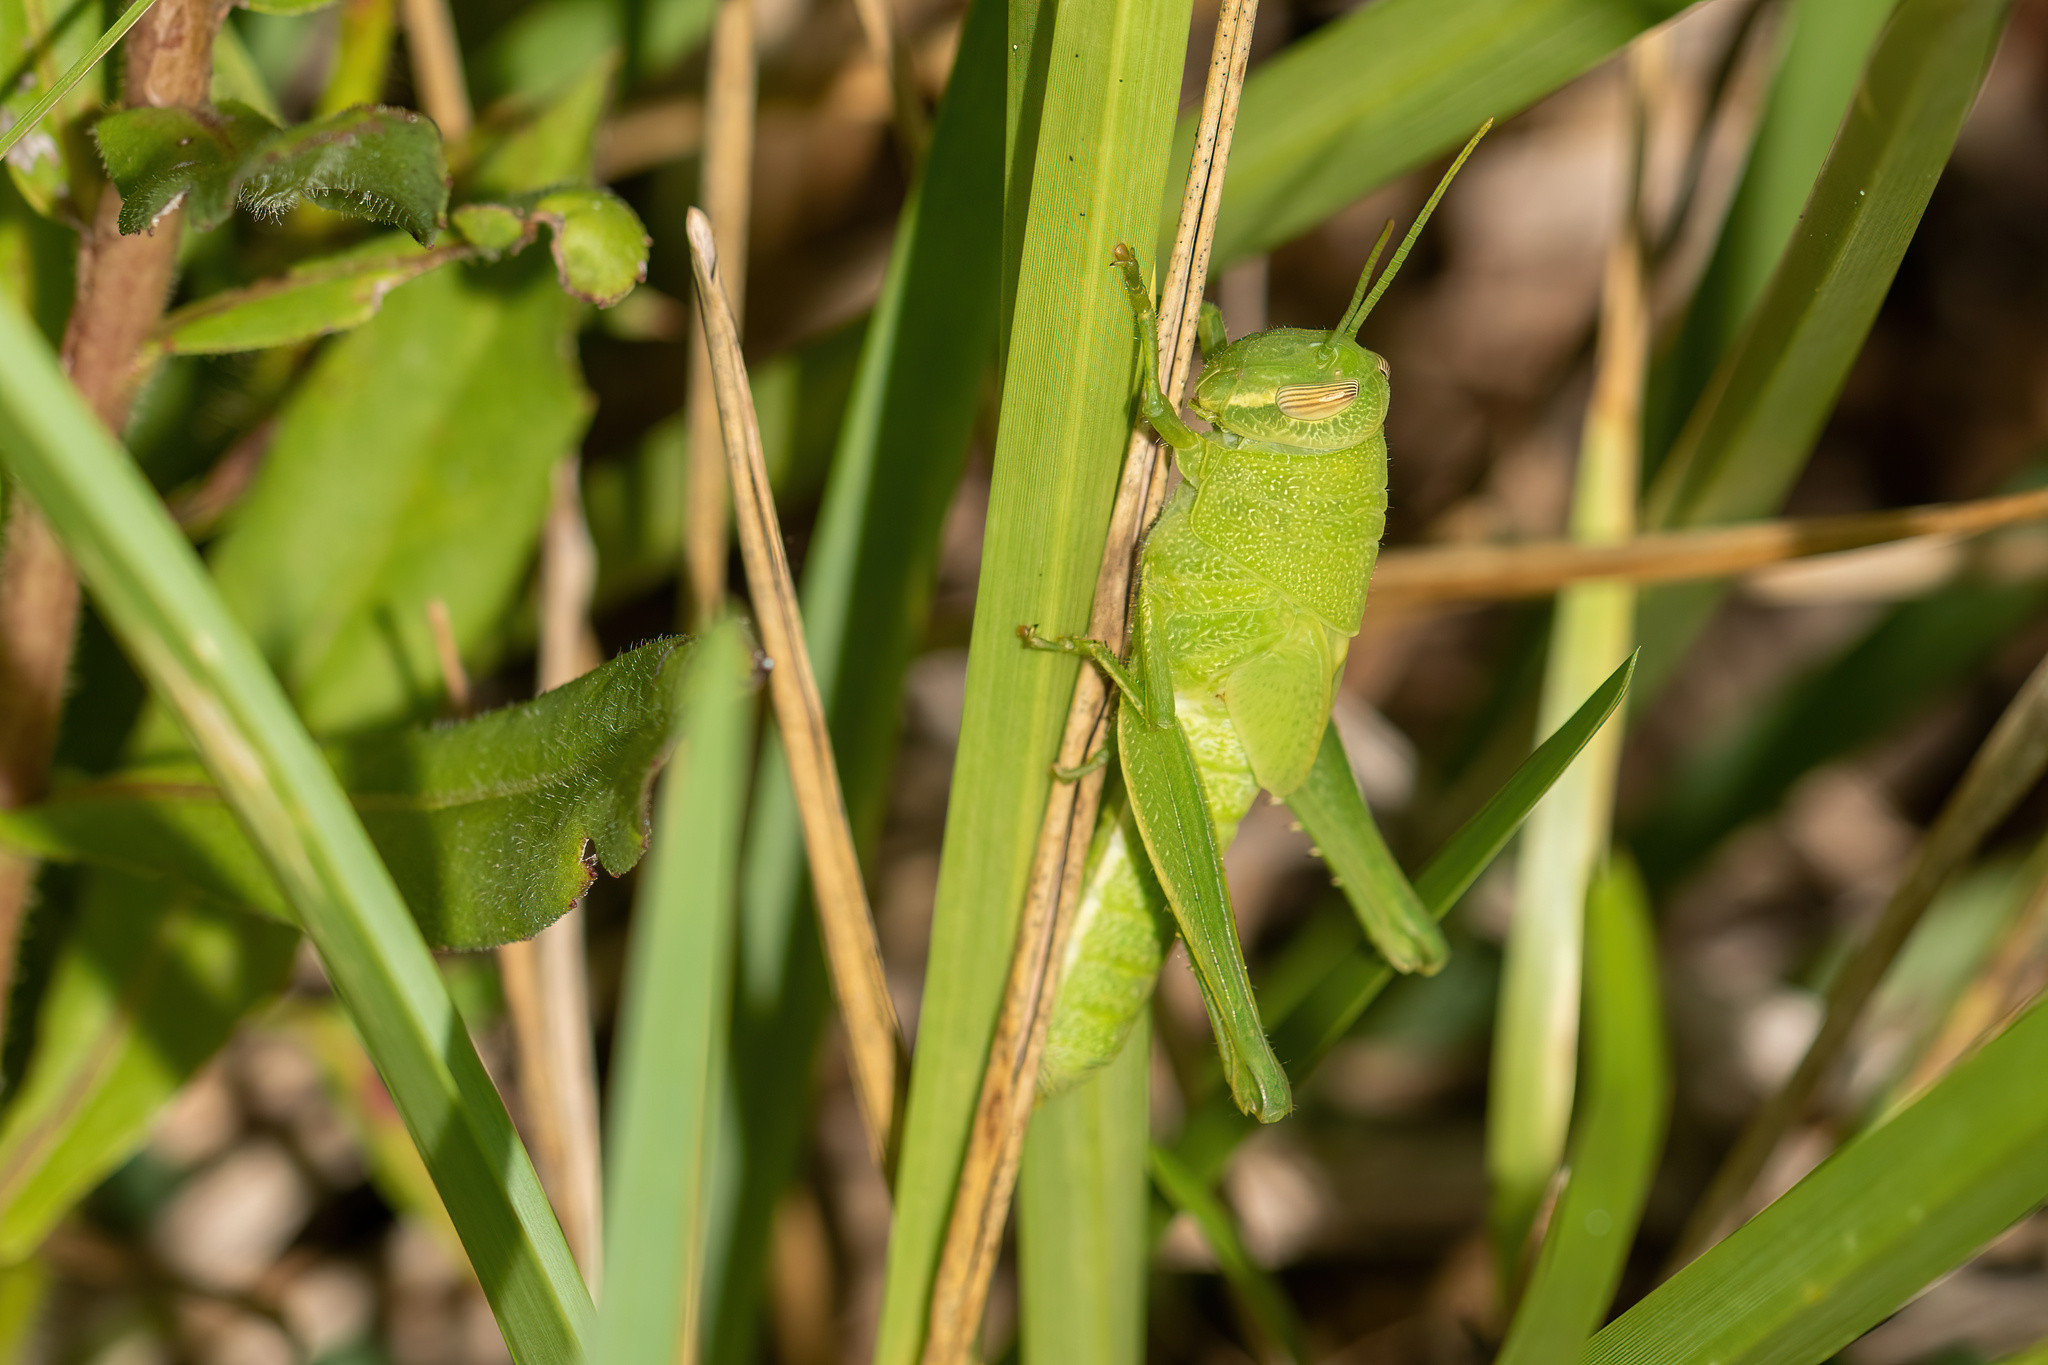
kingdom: Animalia
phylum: Arthropoda
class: Insecta
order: Orthoptera
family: Acrididae
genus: Schistocerca
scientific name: Schistocerca damnifica
